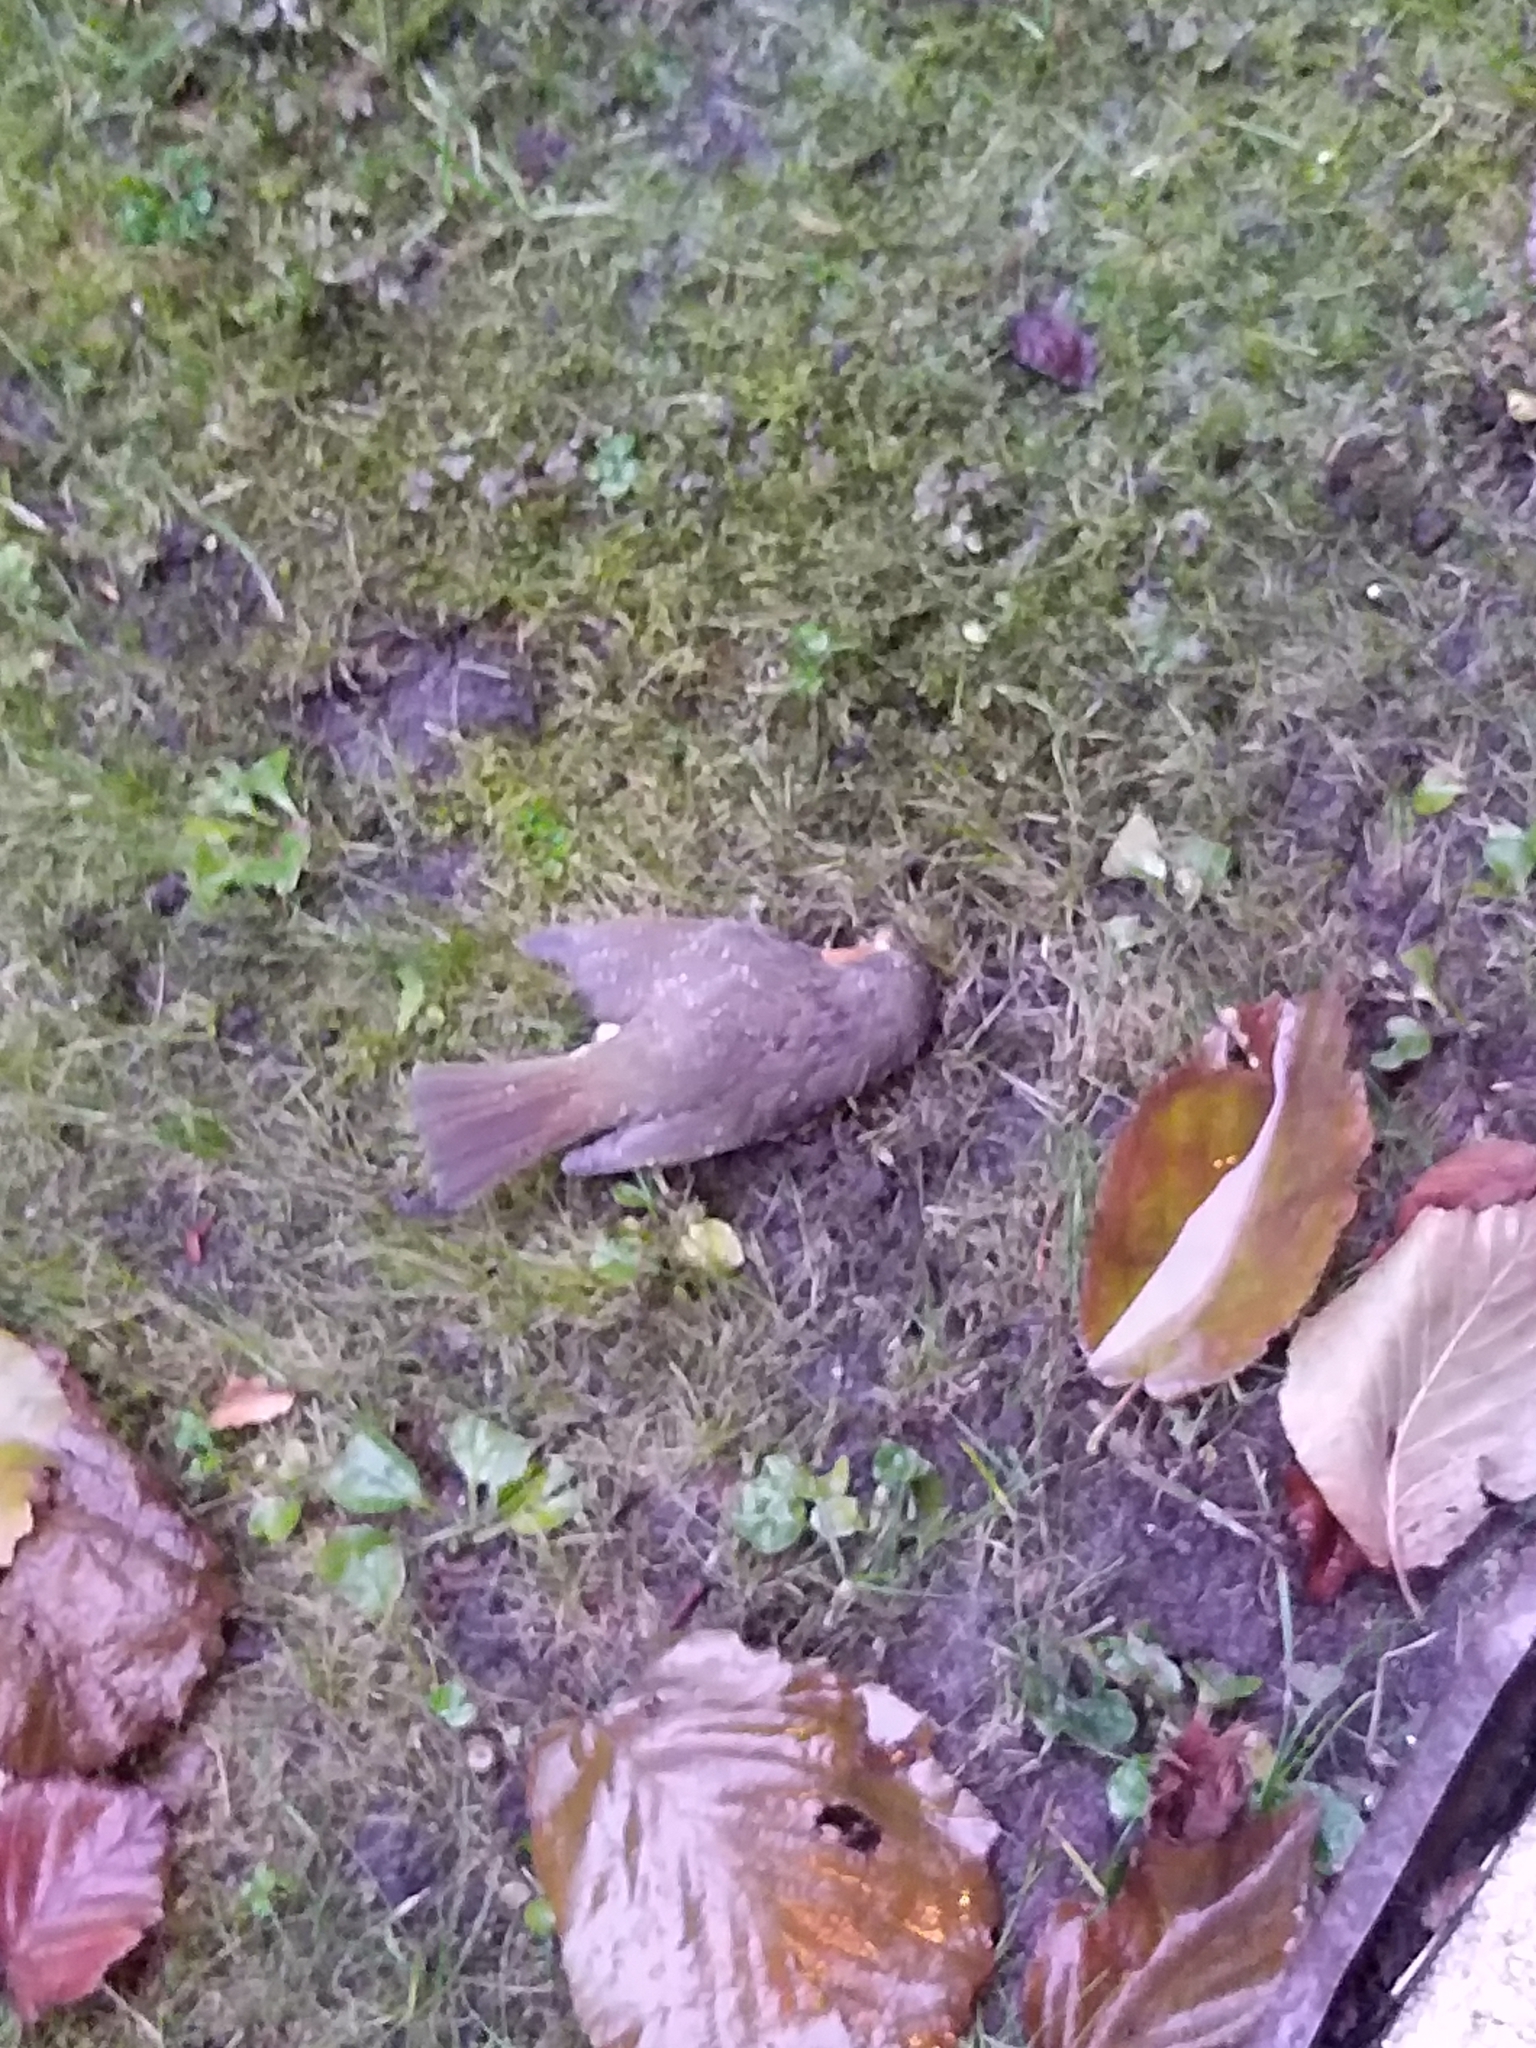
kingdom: Animalia
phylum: Chordata
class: Aves
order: Passeriformes
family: Muscicapidae
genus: Erithacus
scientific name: Erithacus rubecula
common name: European robin
